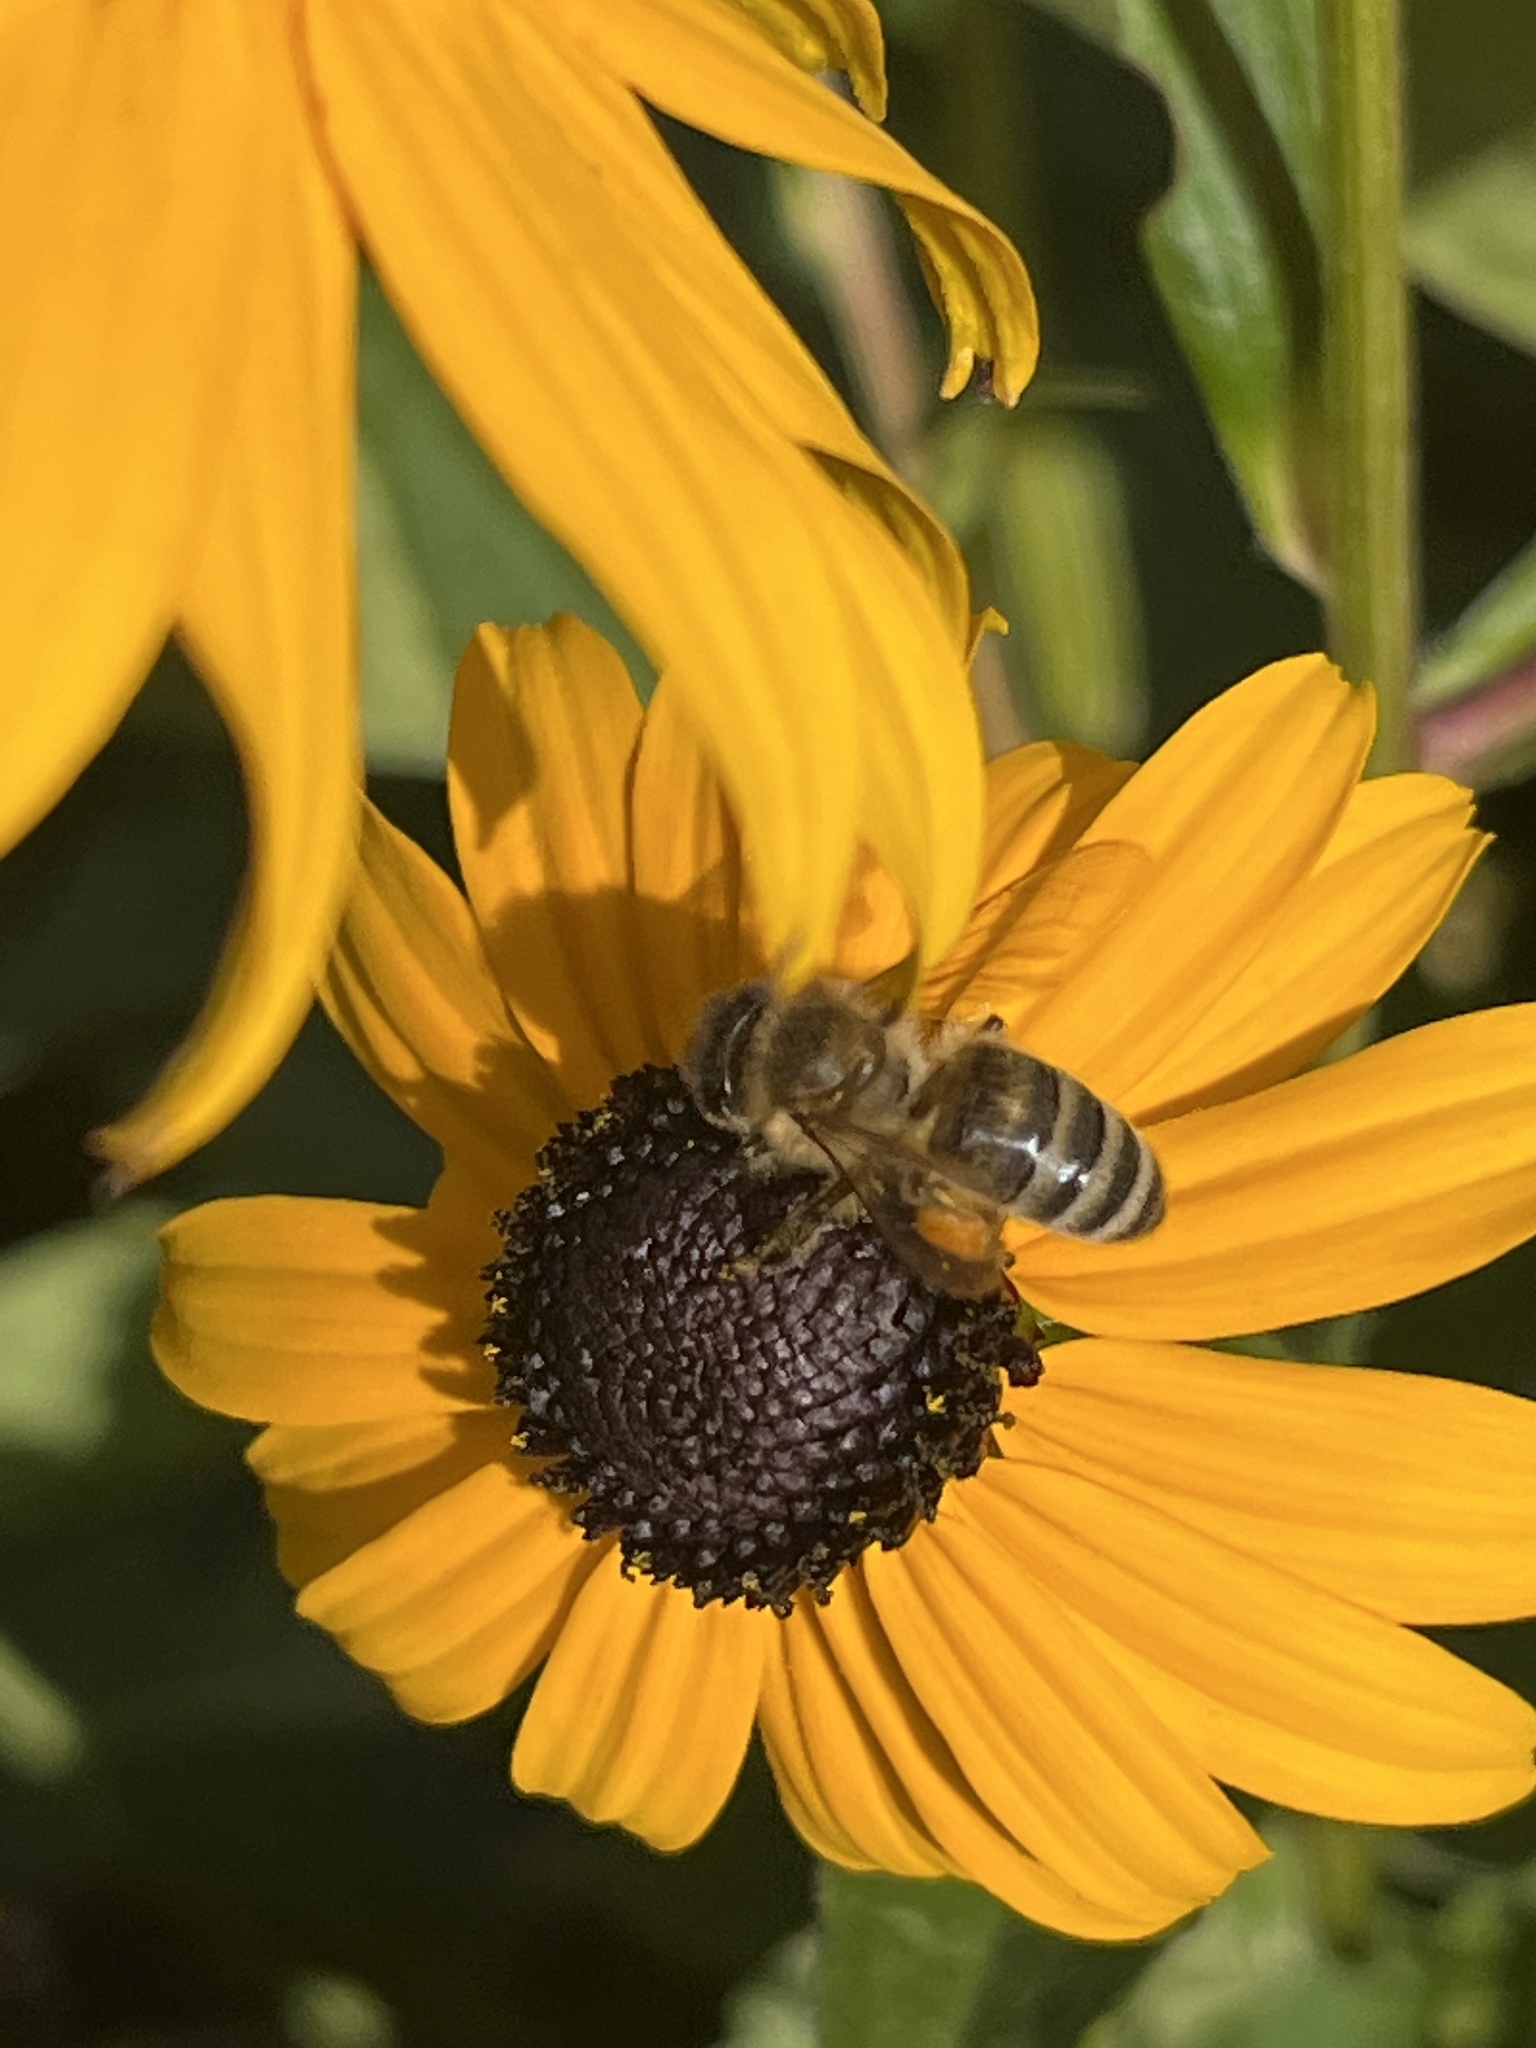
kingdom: Animalia
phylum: Arthropoda
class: Insecta
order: Hymenoptera
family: Apidae
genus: Apis
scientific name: Apis mellifera
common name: Honey bee
